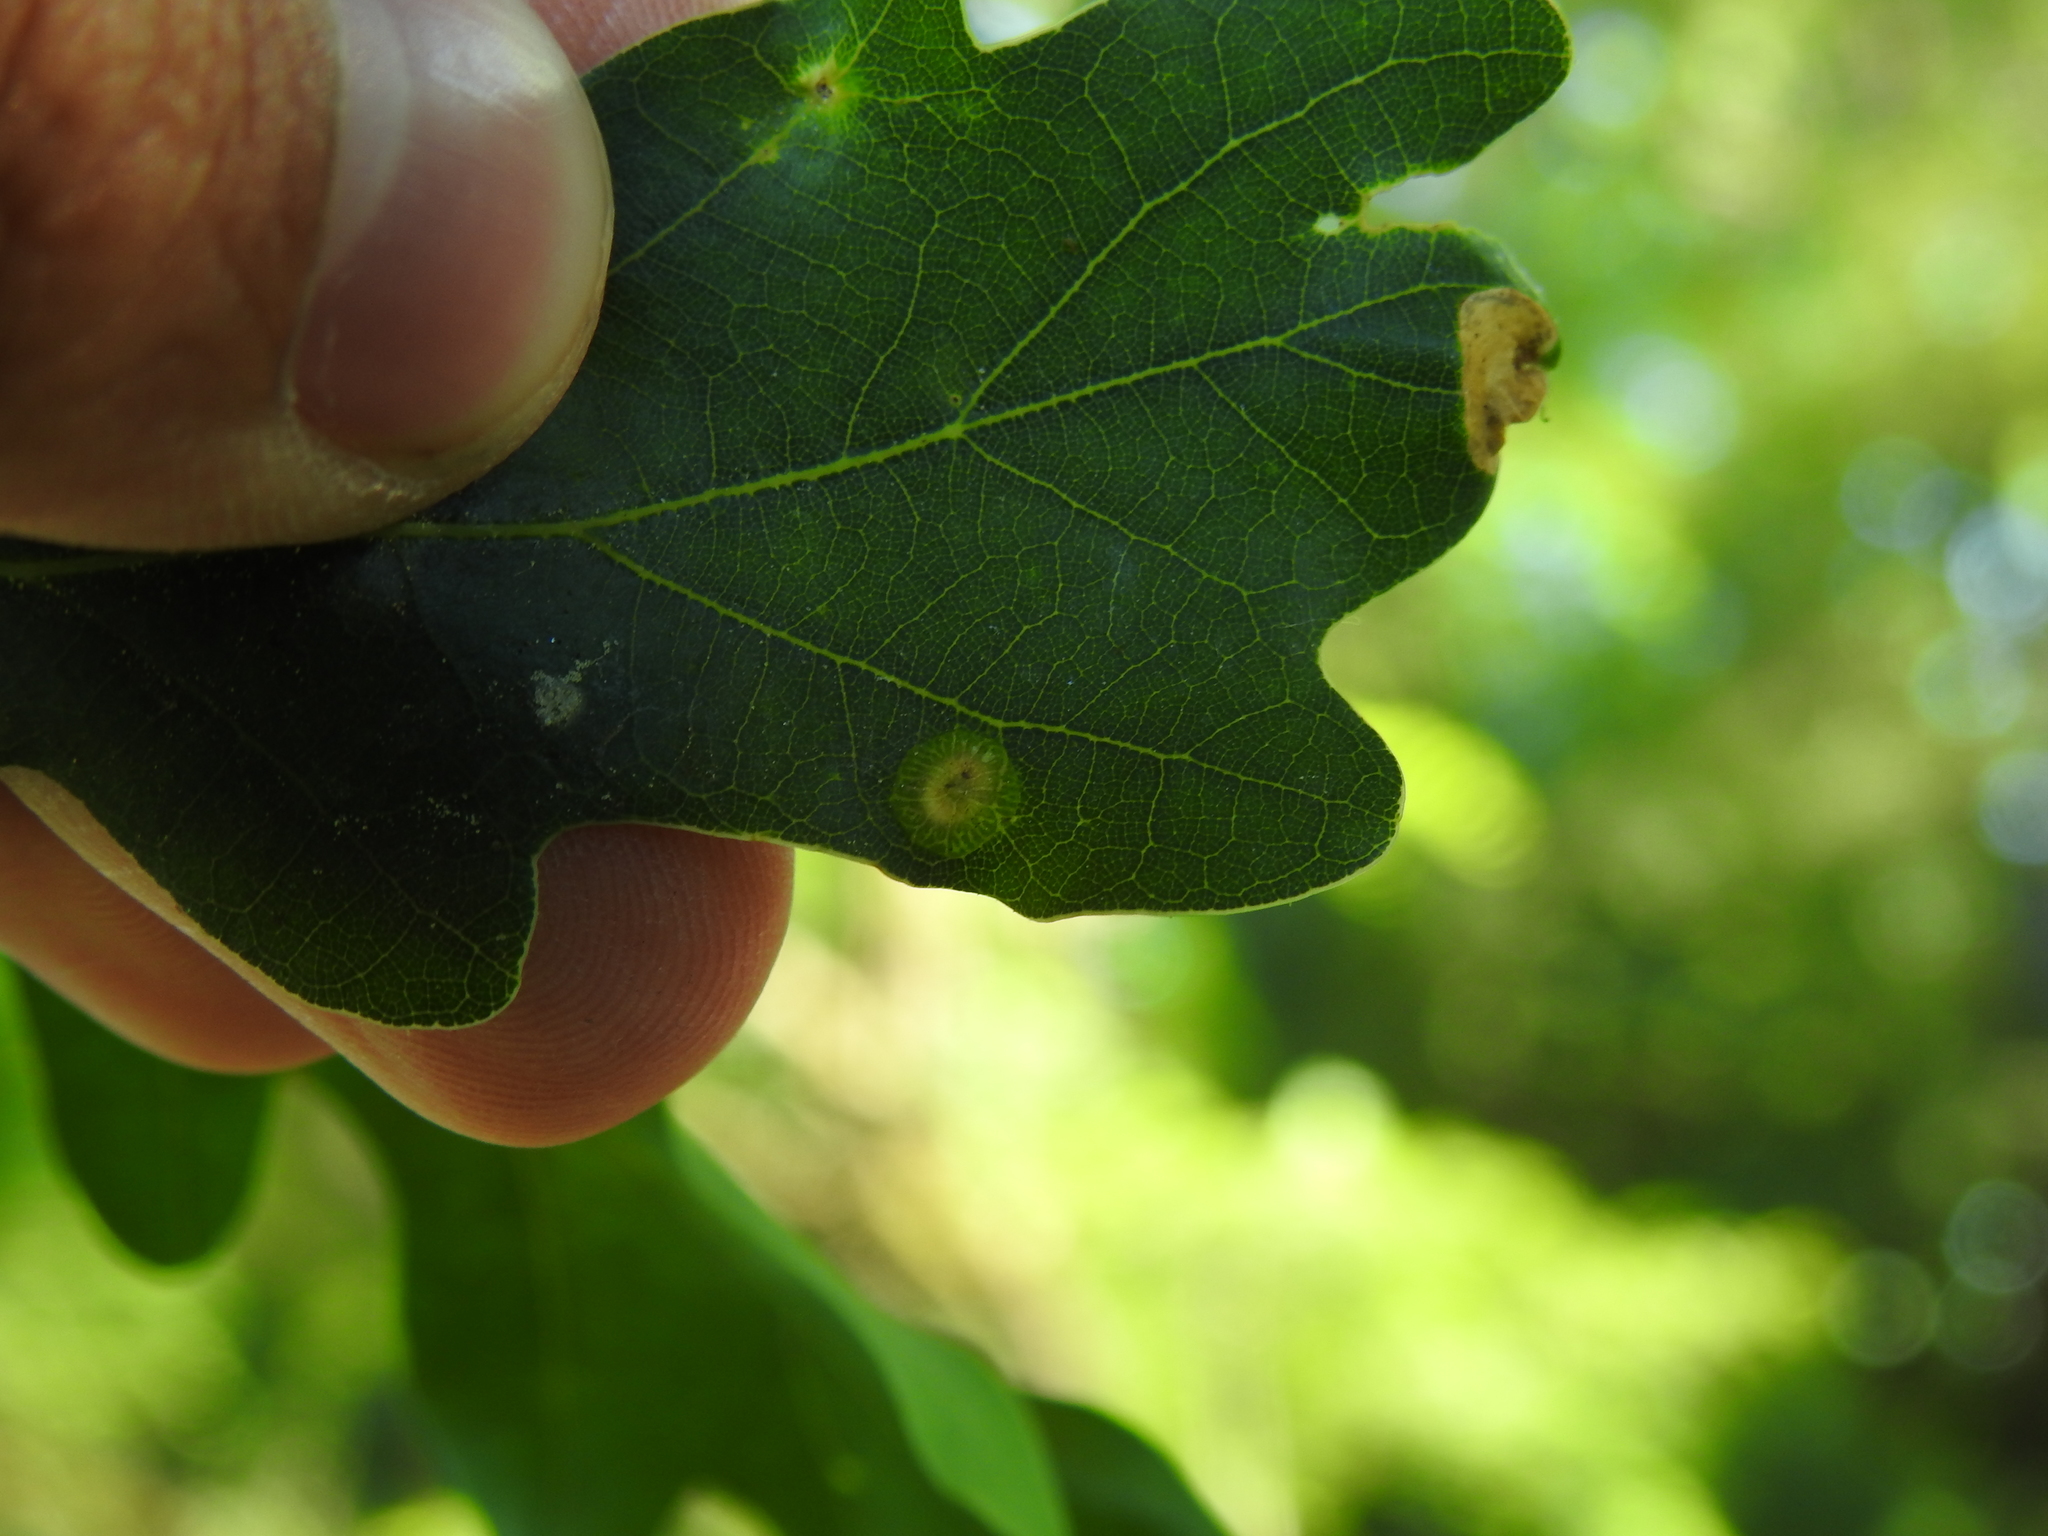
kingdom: Animalia
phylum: Arthropoda
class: Insecta
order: Hymenoptera
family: Cynipidae
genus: Neuroterus
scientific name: Neuroterus numismalis
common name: Silk-button spangle gall
